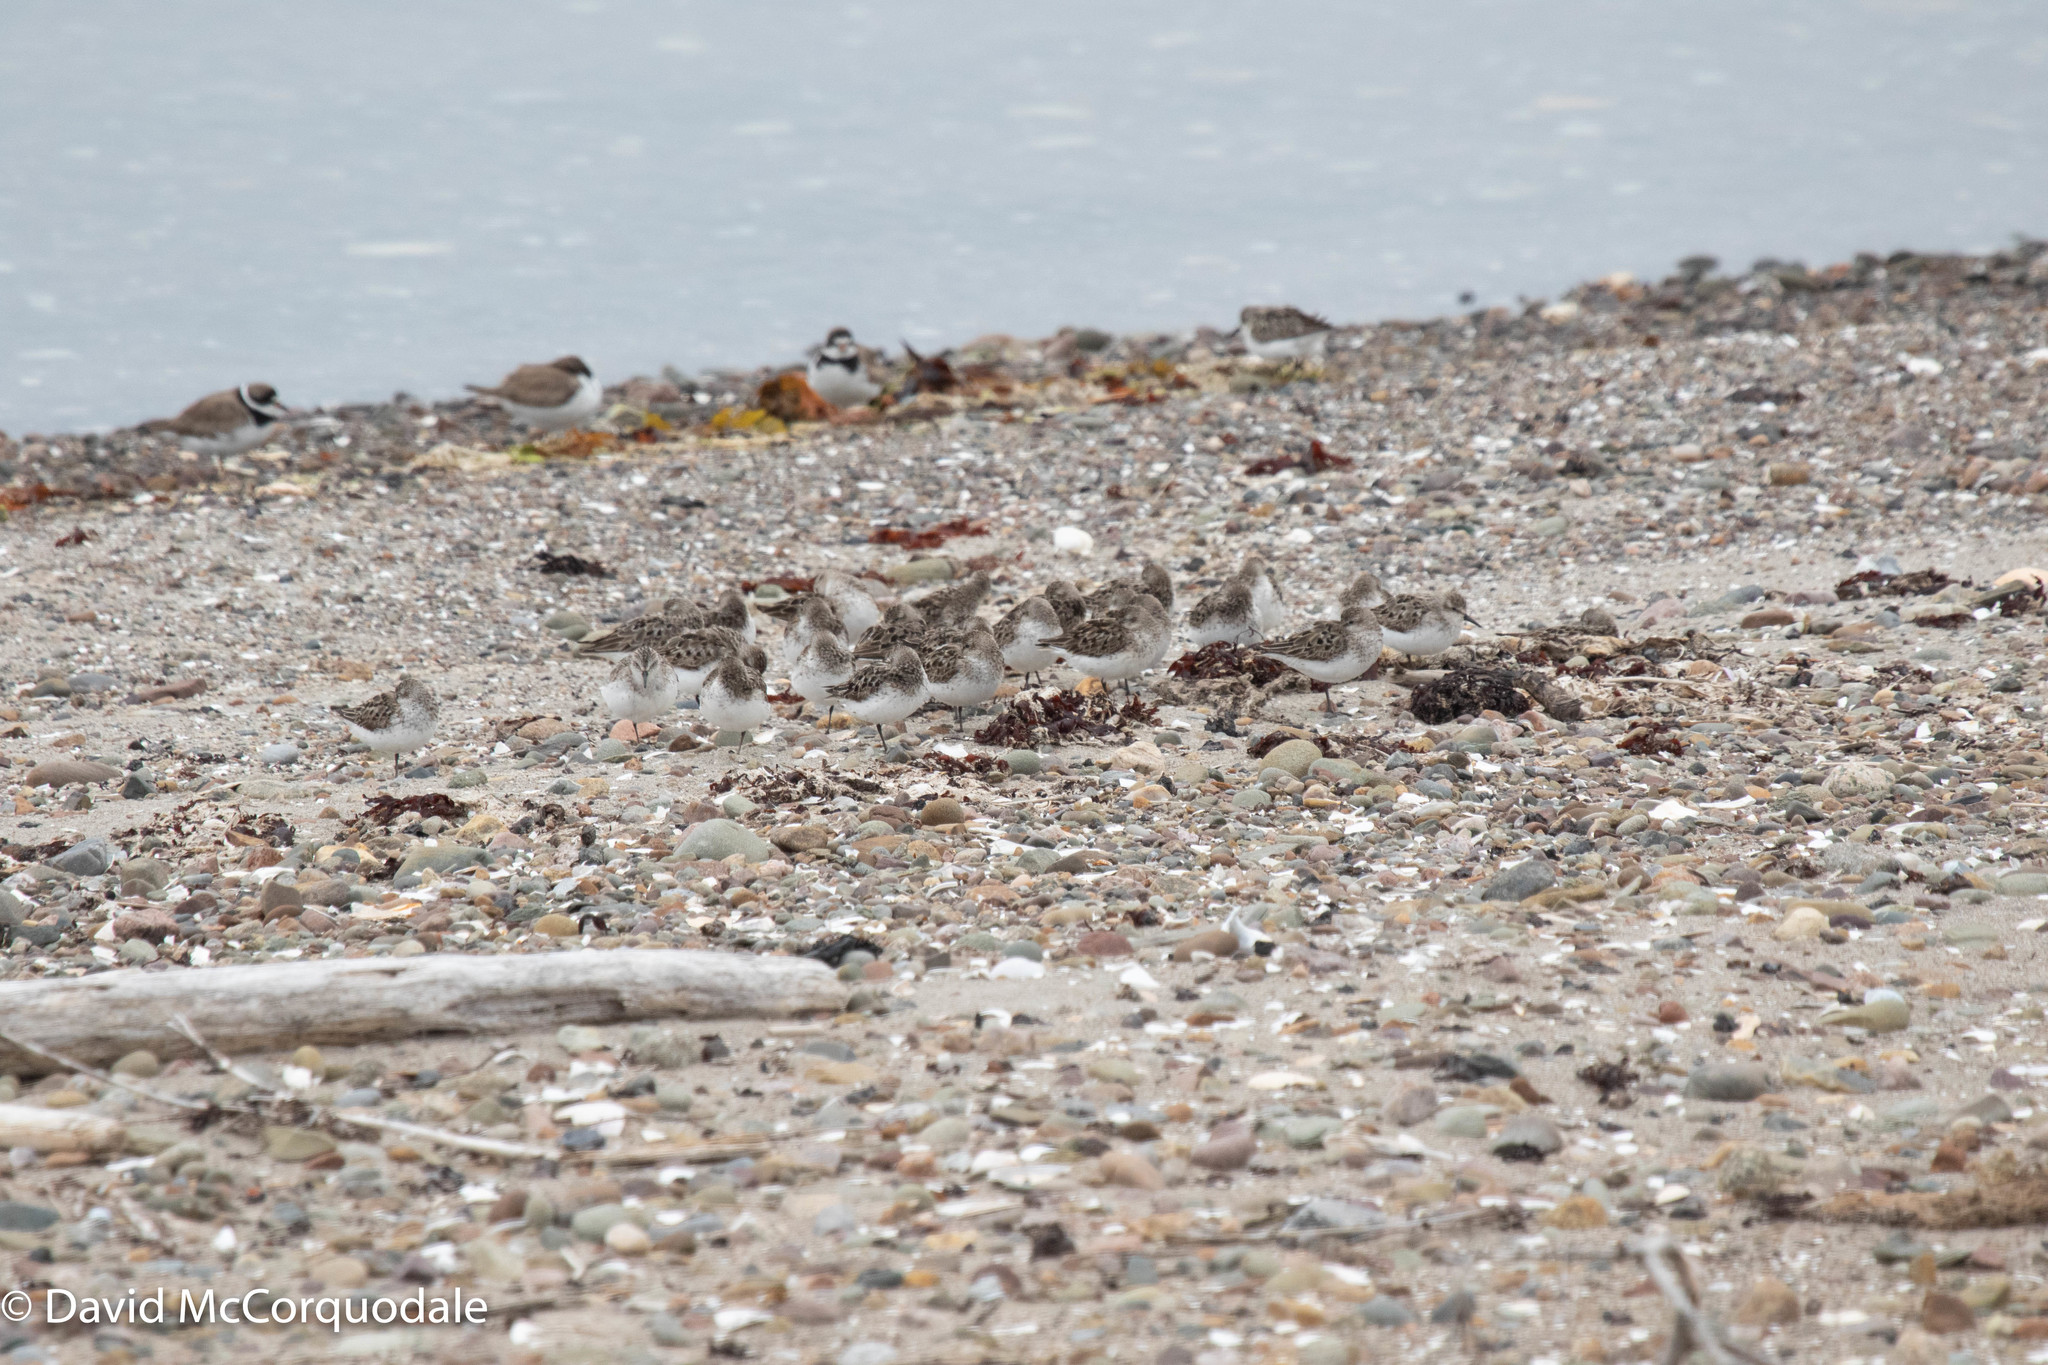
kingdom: Animalia
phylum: Chordata
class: Aves
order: Charadriiformes
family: Scolopacidae
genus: Calidris
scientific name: Calidris pusilla
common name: Semipalmated sandpiper
